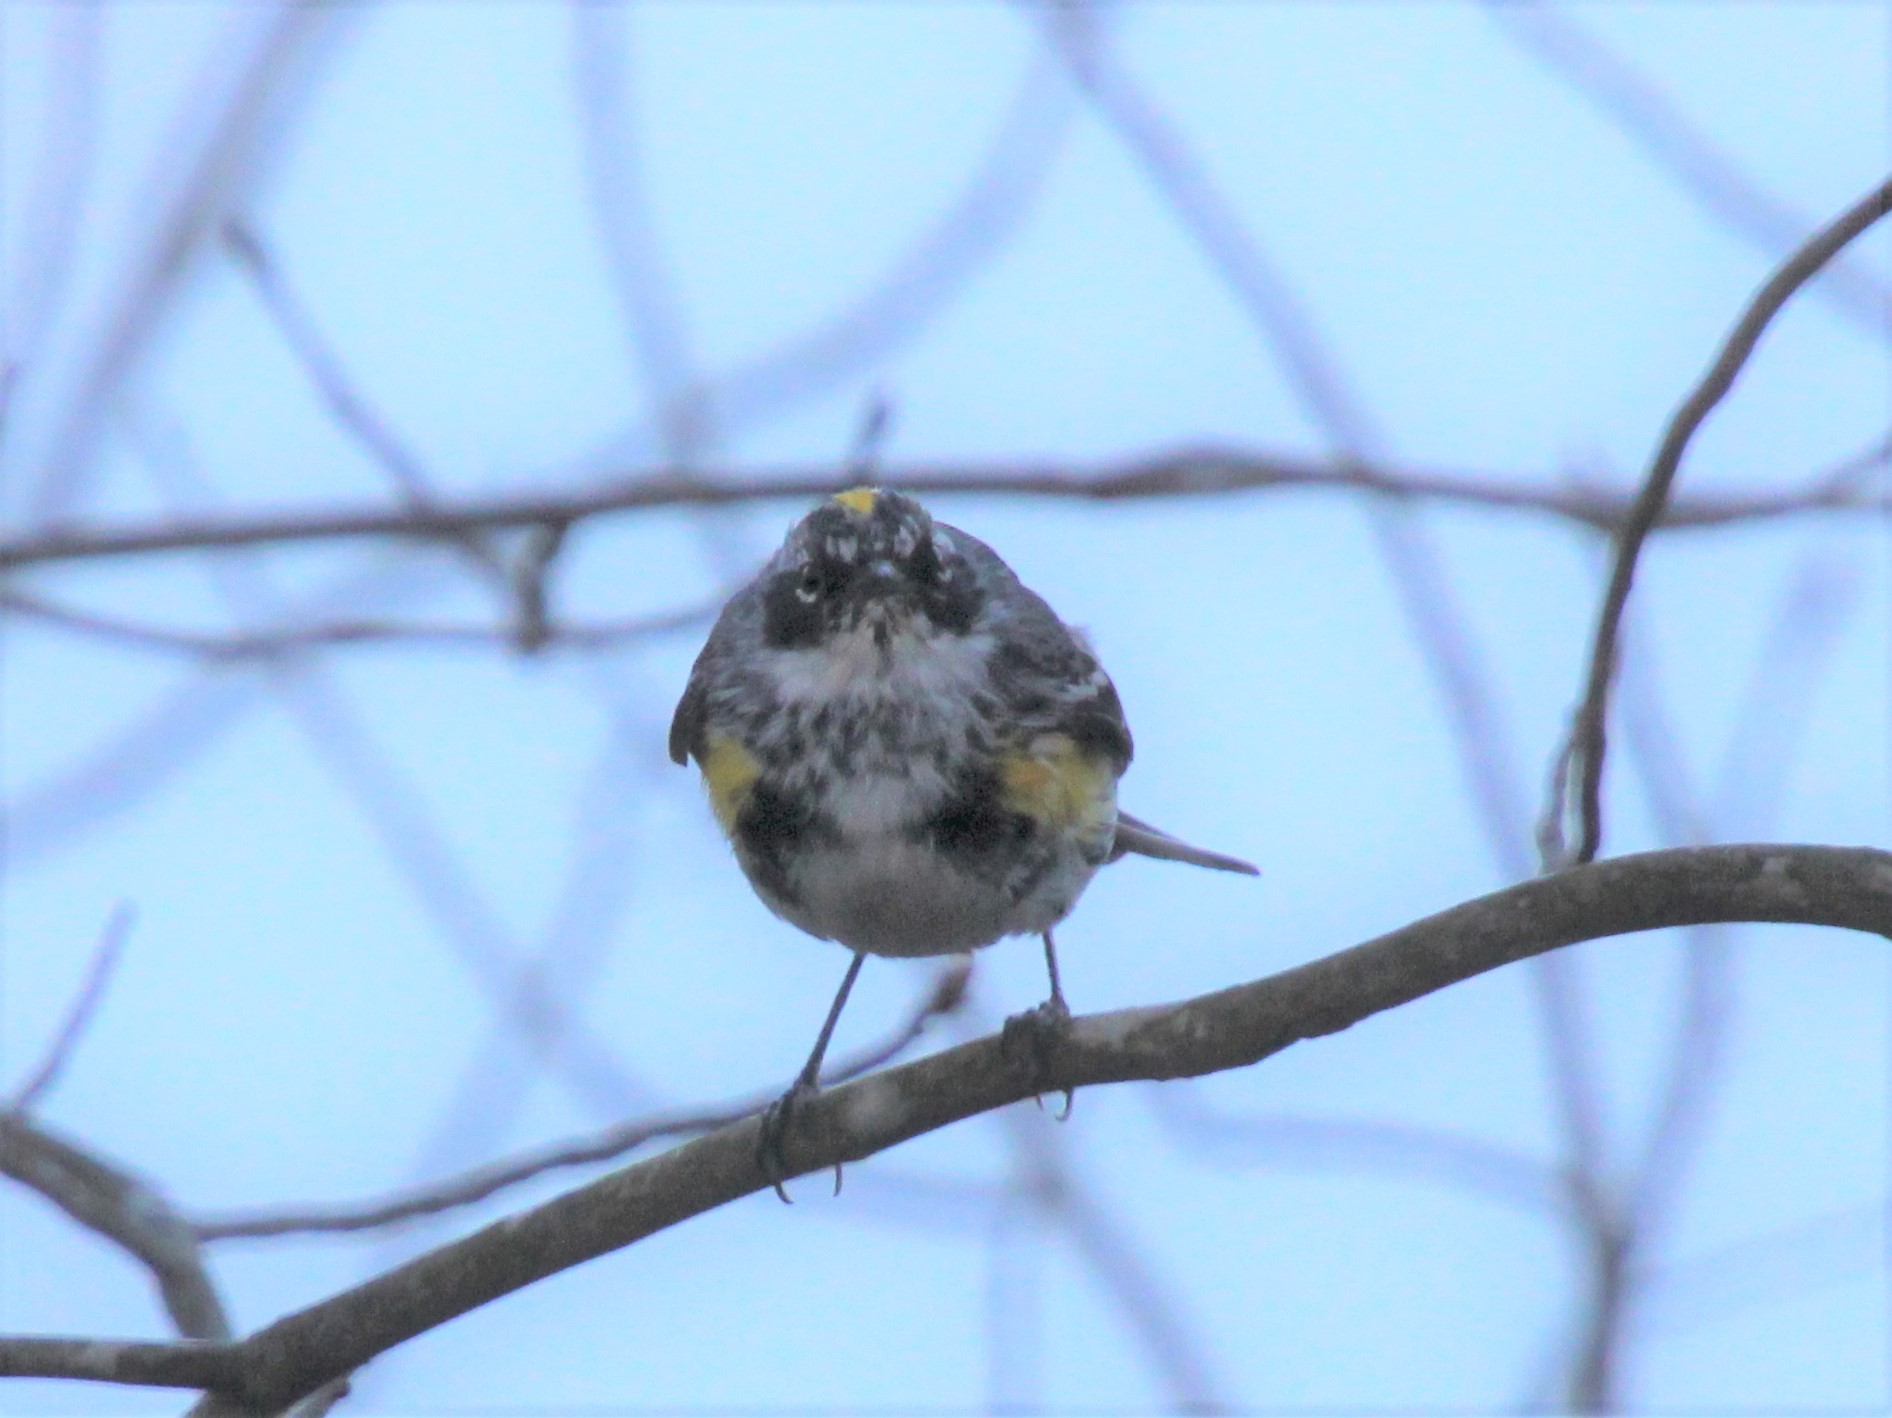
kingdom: Animalia
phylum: Chordata
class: Aves
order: Passeriformes
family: Parulidae
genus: Setophaga
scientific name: Setophaga coronata
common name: Myrtle warbler
